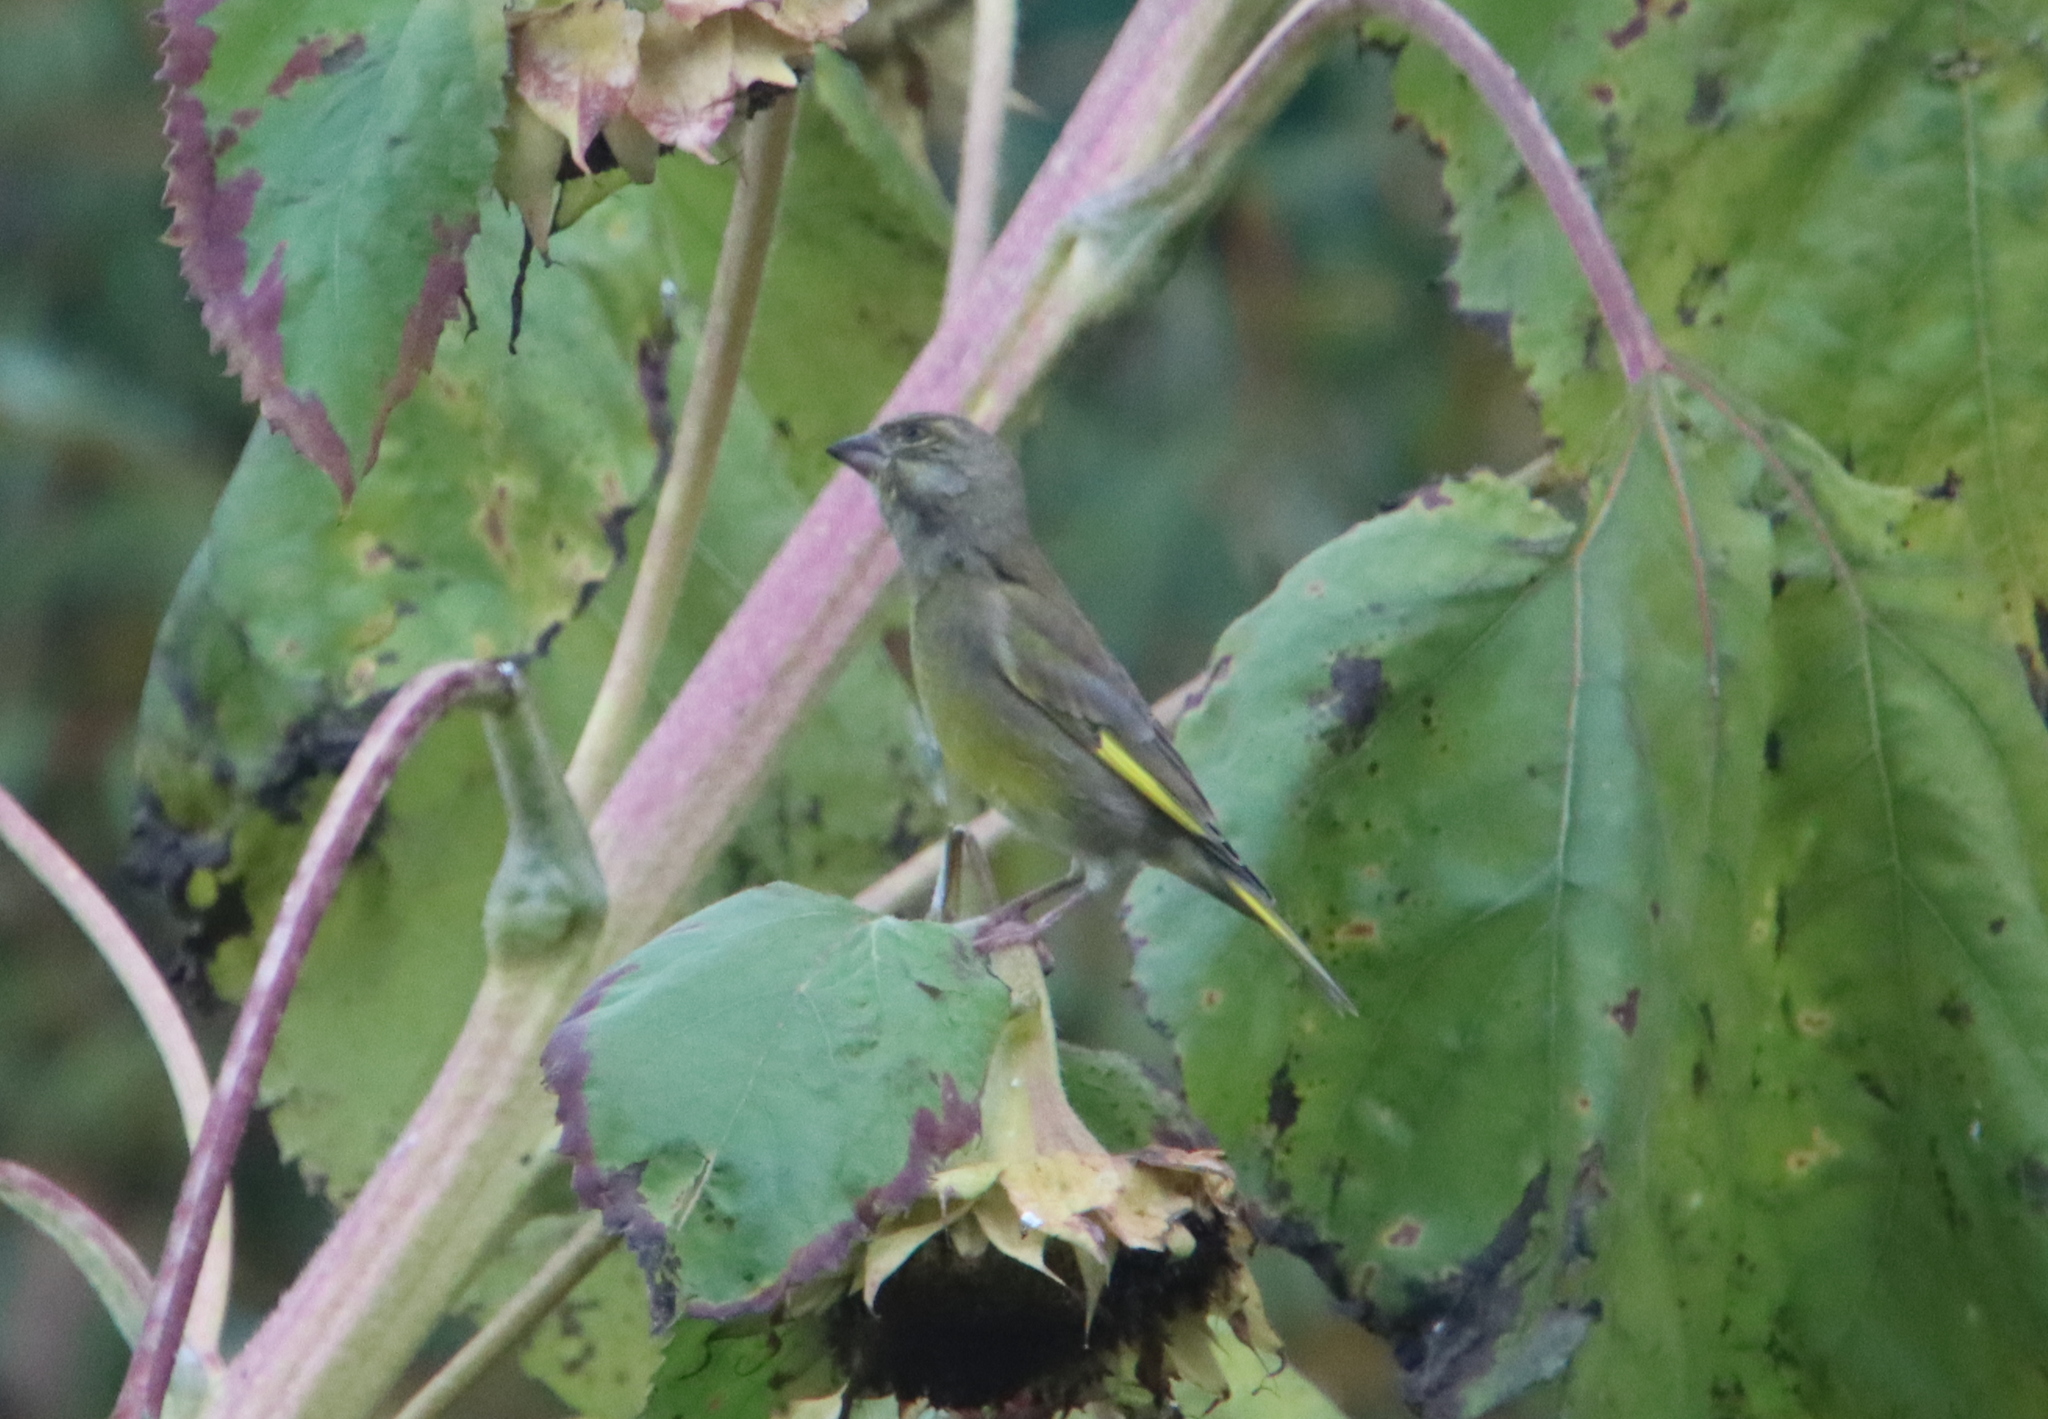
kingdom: Plantae
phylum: Tracheophyta
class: Liliopsida
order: Poales
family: Poaceae
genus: Chloris
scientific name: Chloris chloris
